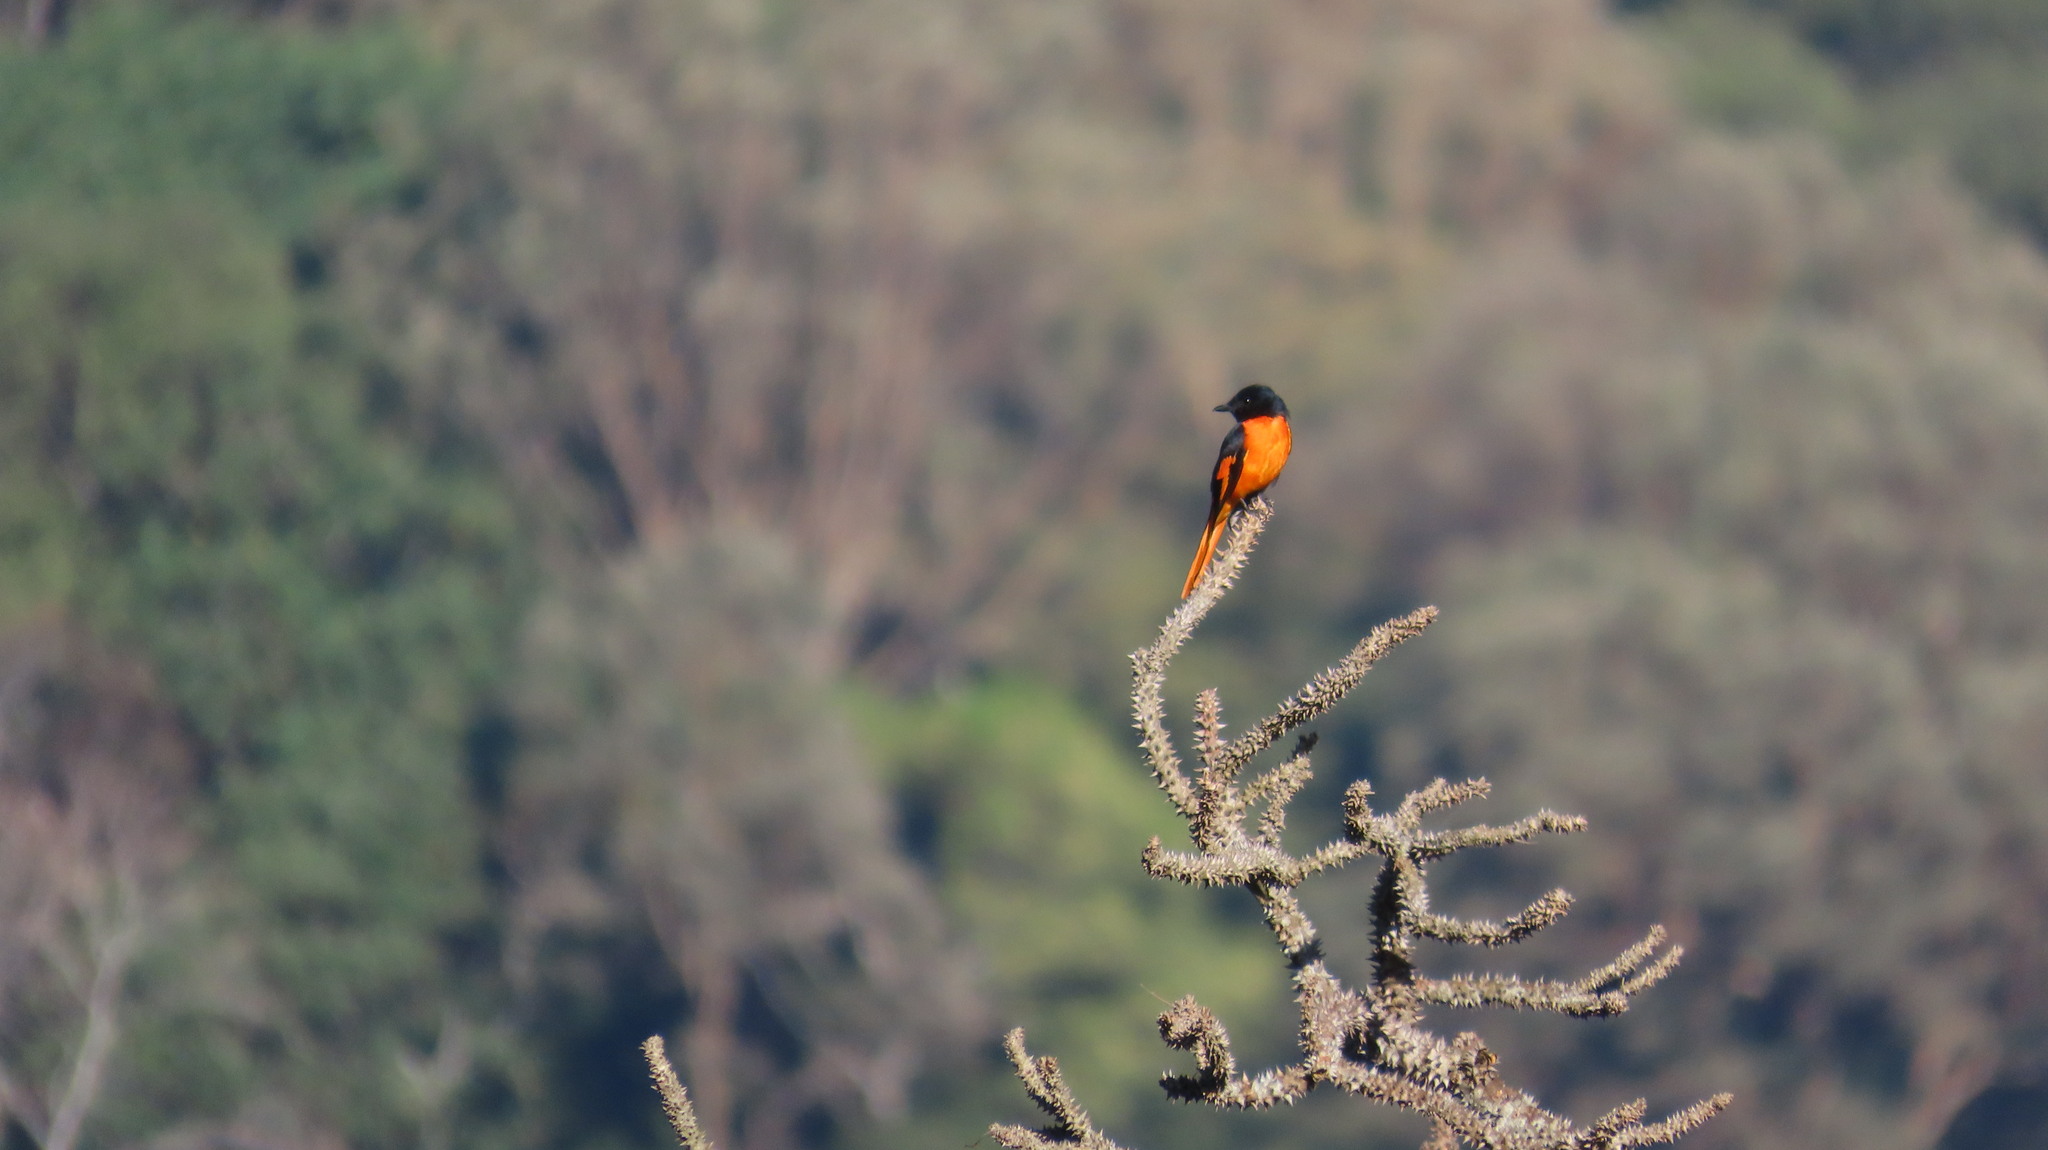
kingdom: Animalia
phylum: Chordata
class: Aves
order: Passeriformes
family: Campephagidae
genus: Pericrocotus
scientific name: Pericrocotus flammeus
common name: Orange minivet
